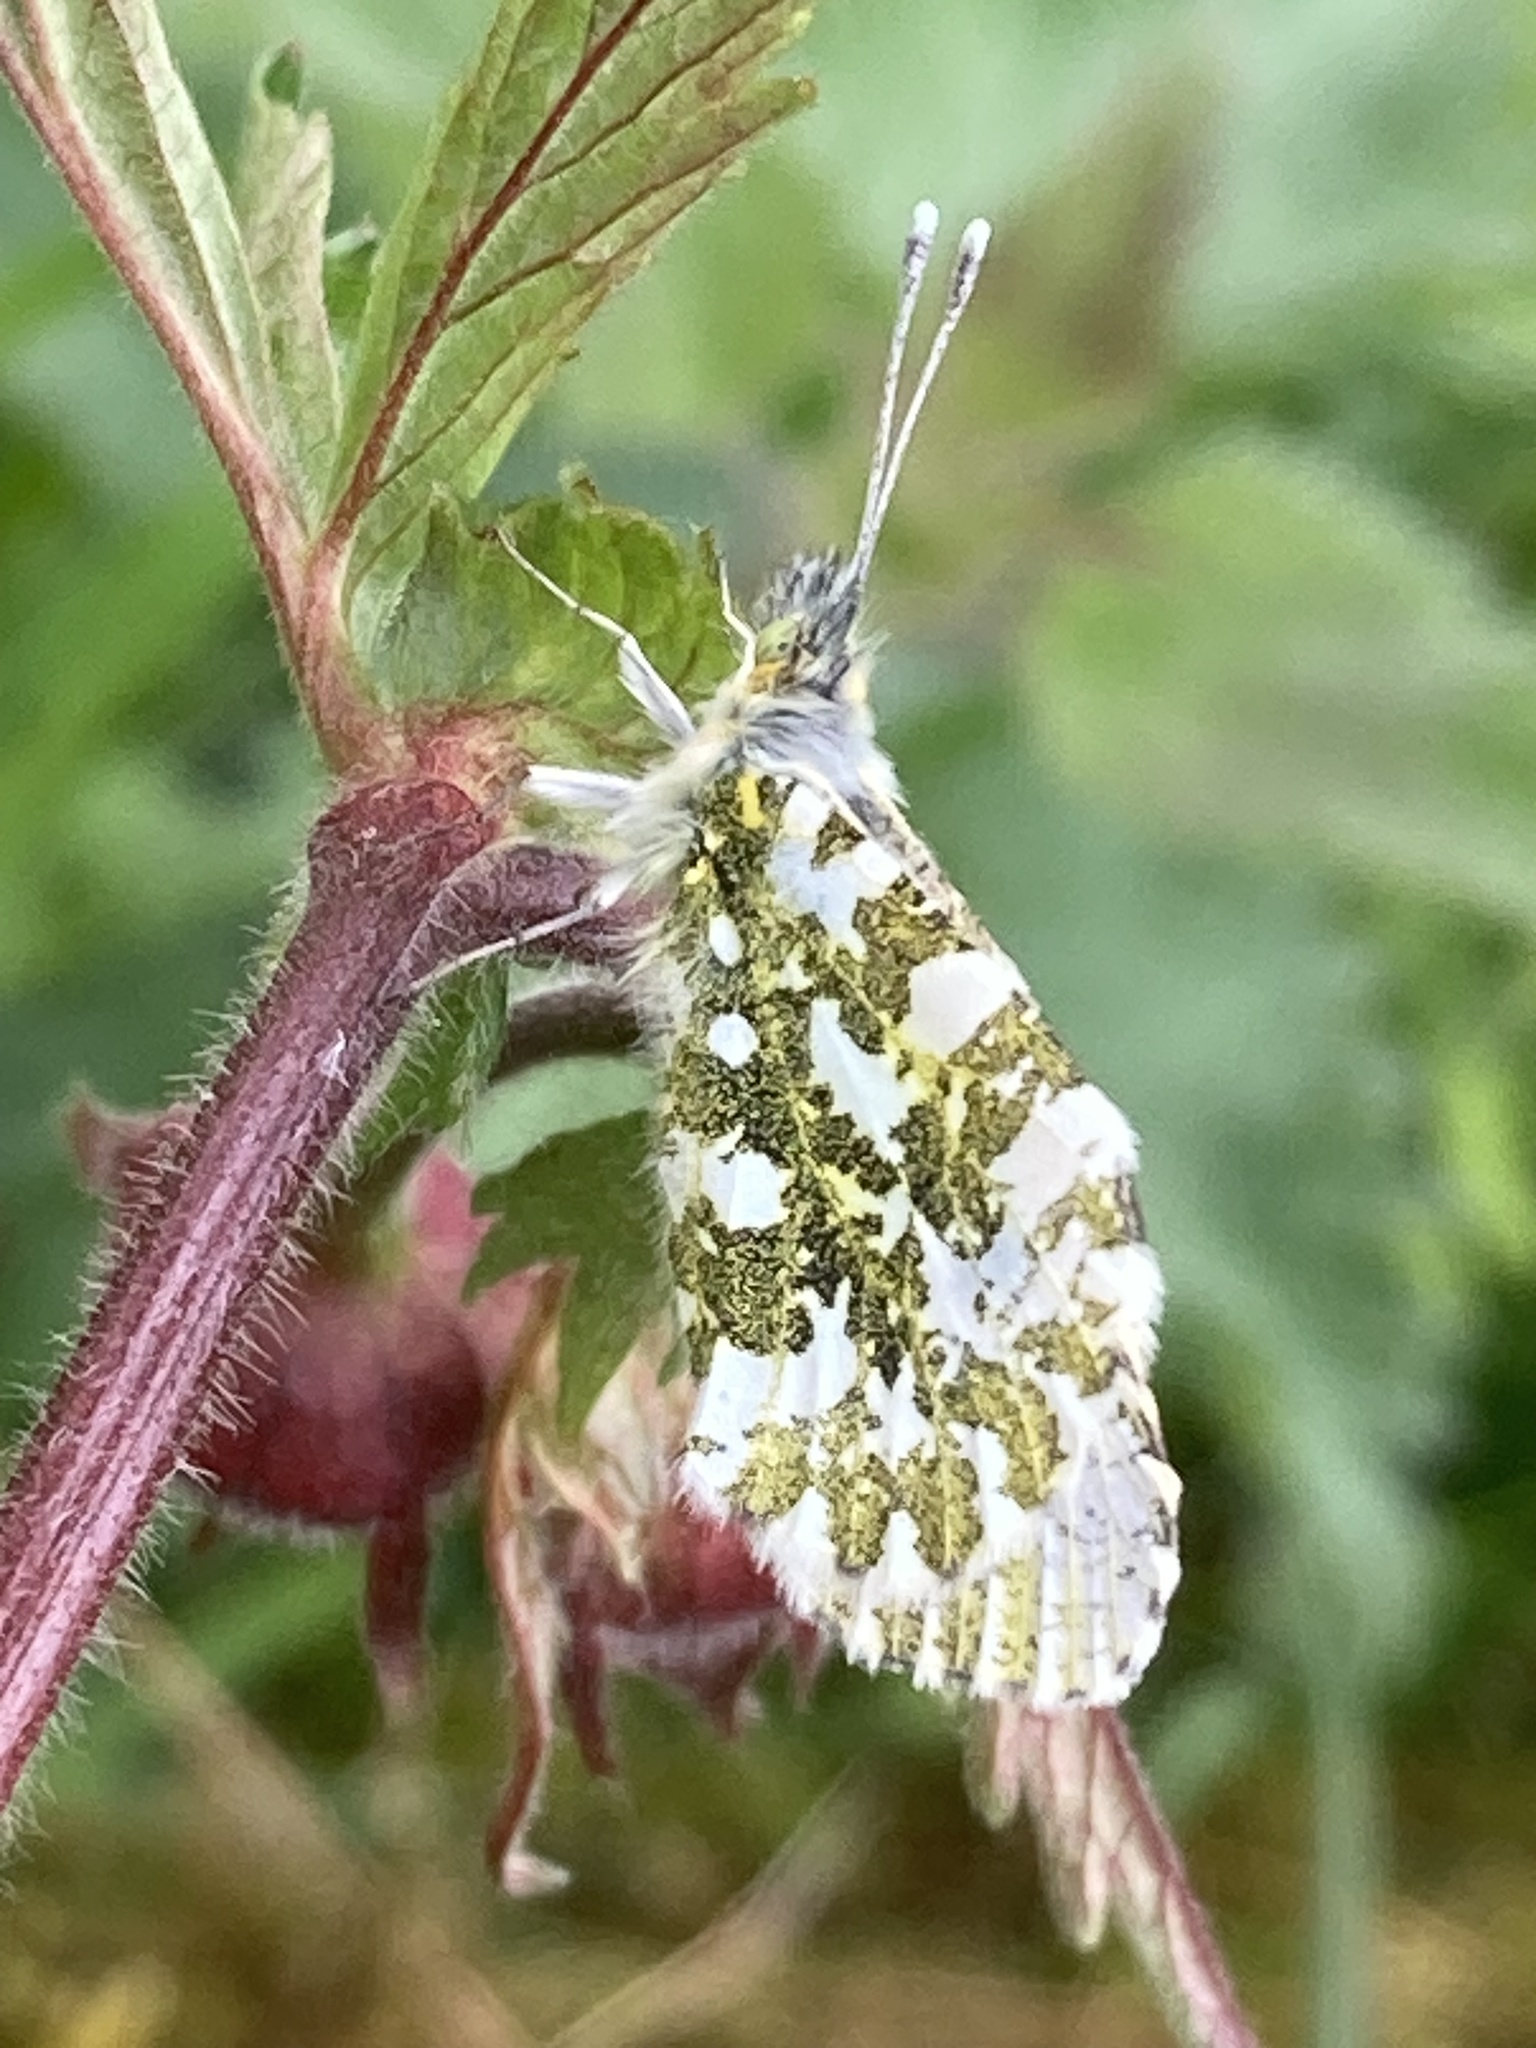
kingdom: Animalia
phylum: Arthropoda
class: Insecta
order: Lepidoptera
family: Pieridae
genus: Anthocharis
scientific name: Anthocharis cardamines
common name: Orange-tip
